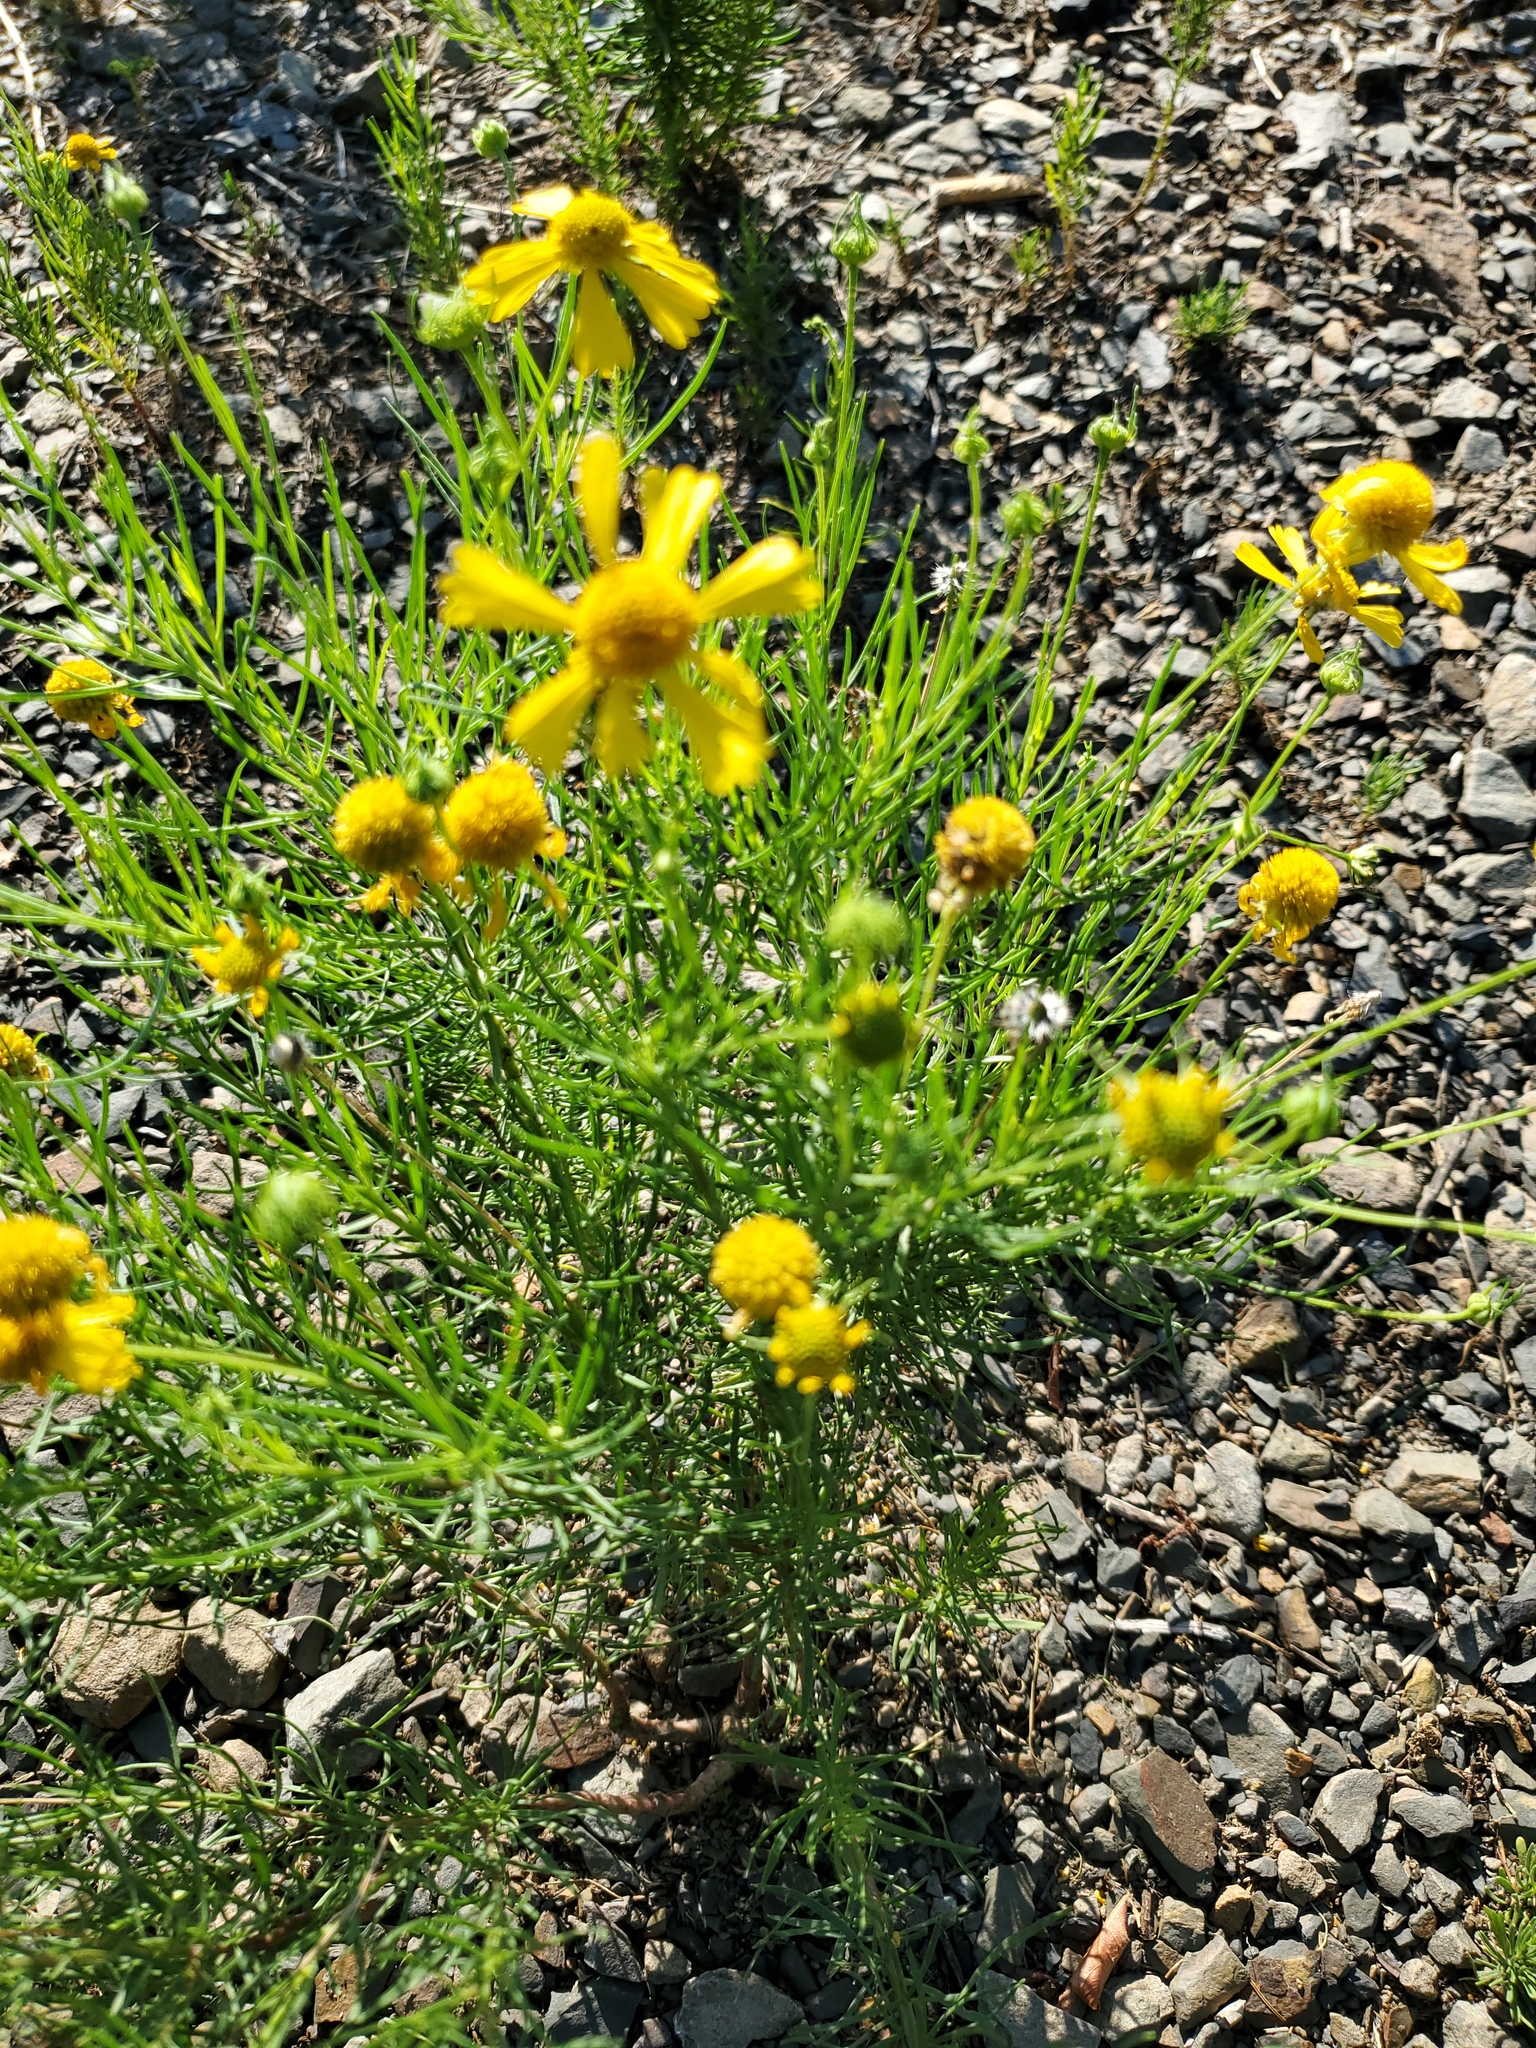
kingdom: Plantae
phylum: Tracheophyta
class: Magnoliopsida
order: Asterales
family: Asteraceae
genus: Helenium
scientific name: Helenium amarum
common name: Bitter sneezeweed
